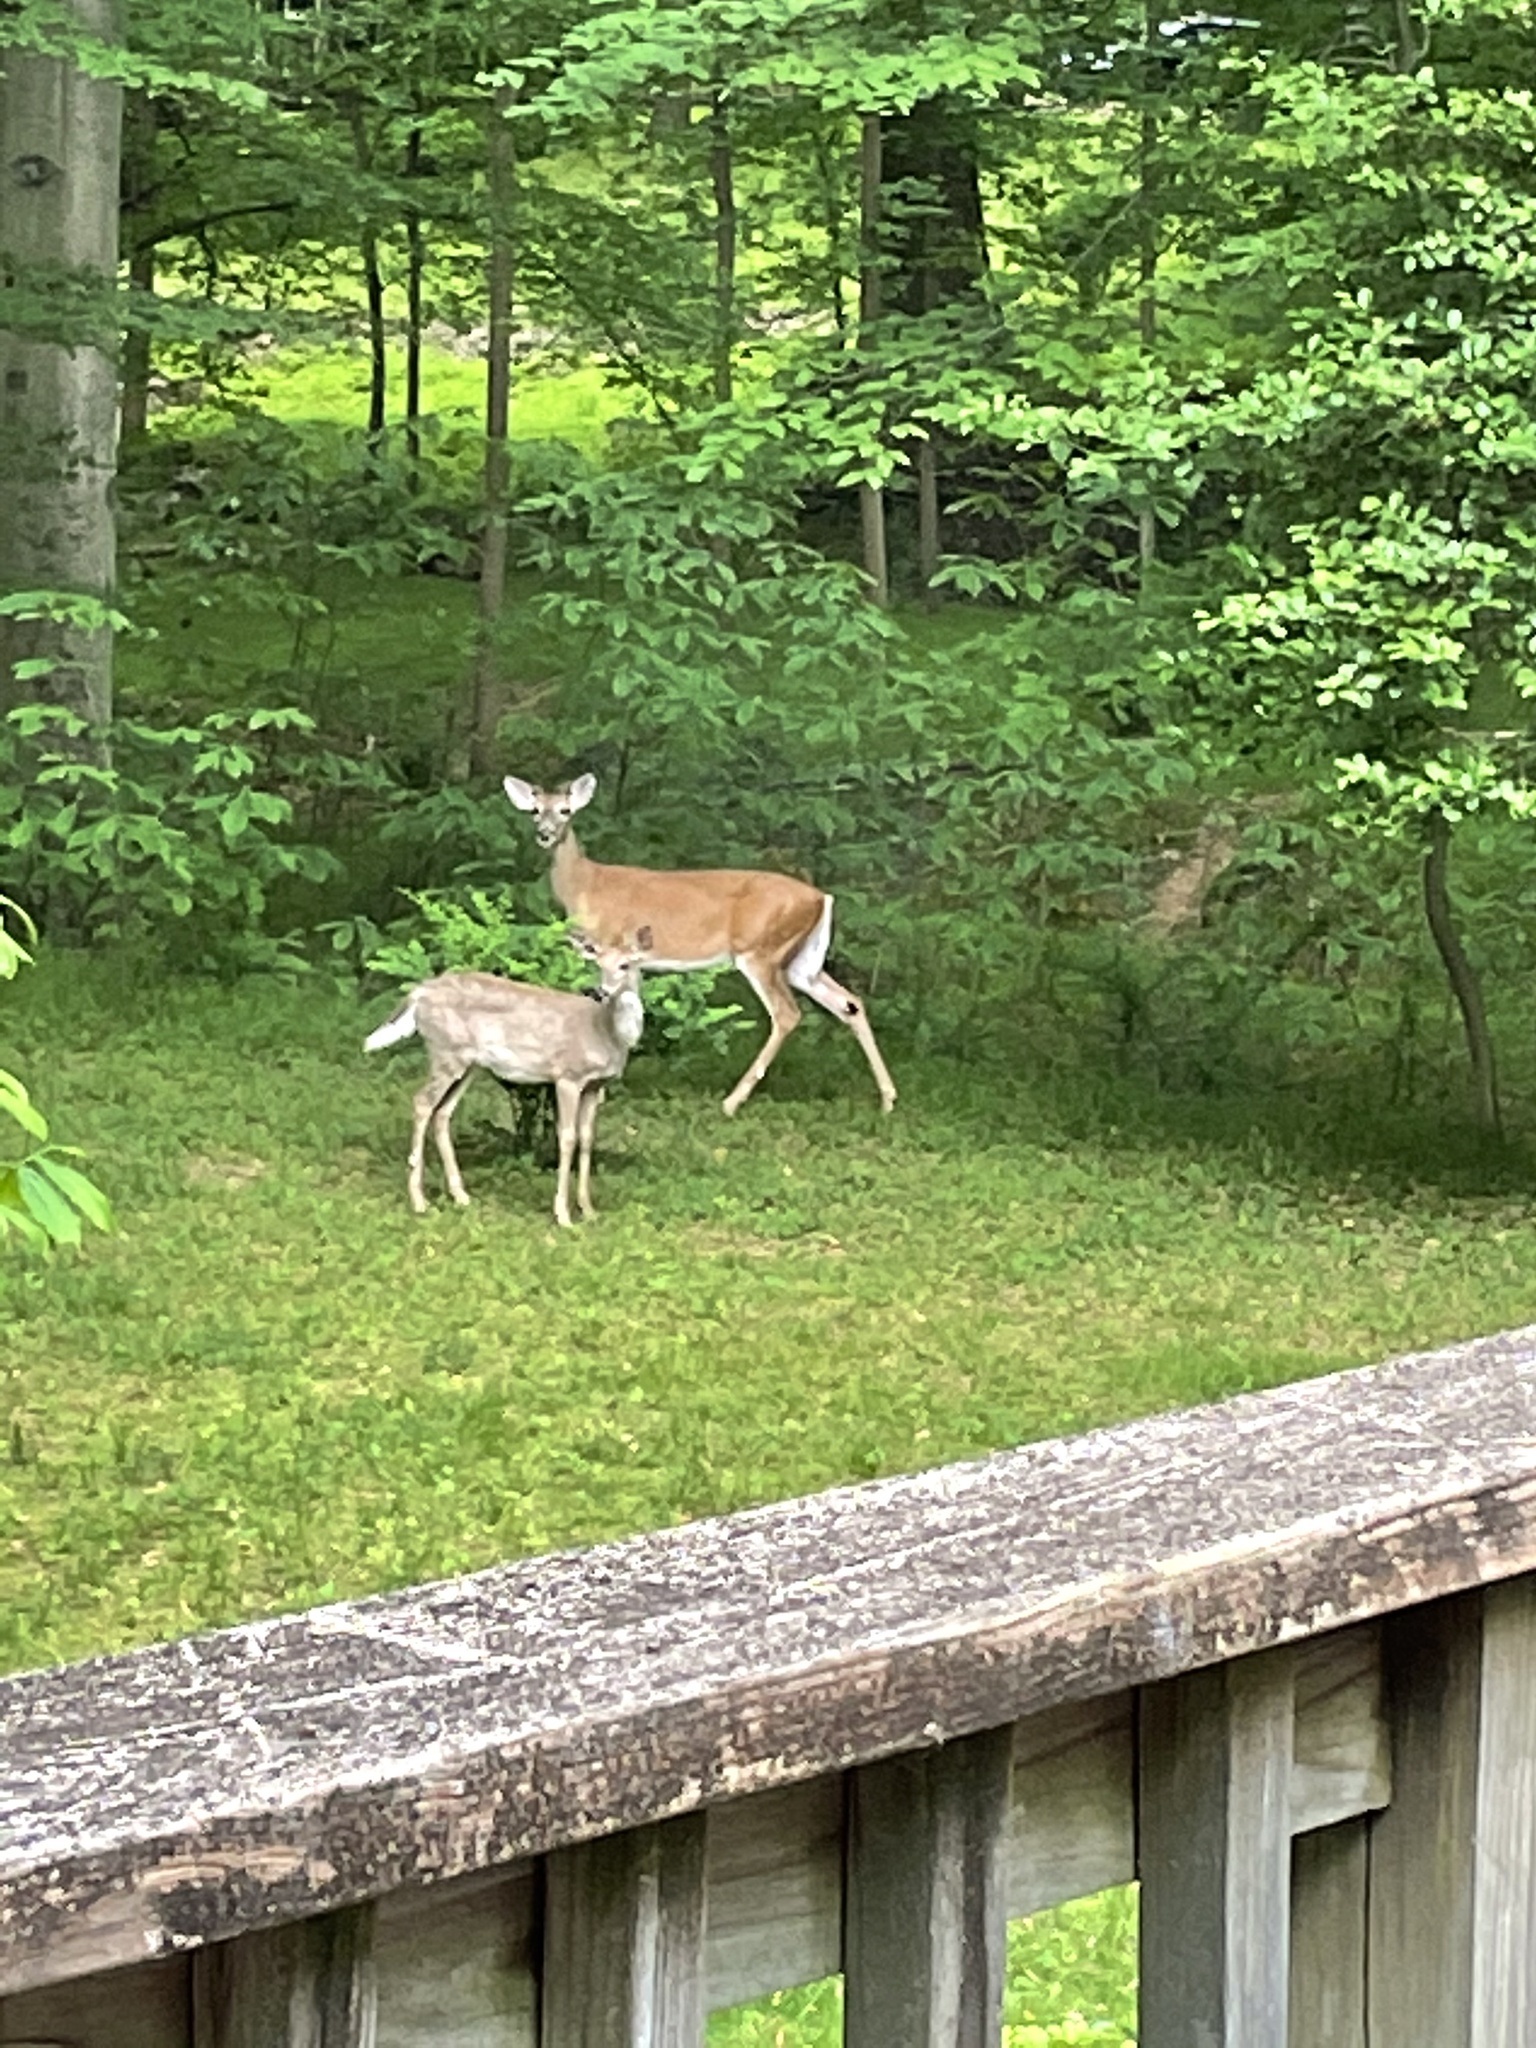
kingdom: Animalia
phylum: Chordata
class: Mammalia
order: Artiodactyla
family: Cervidae
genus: Odocoileus
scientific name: Odocoileus virginianus
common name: White-tailed deer
